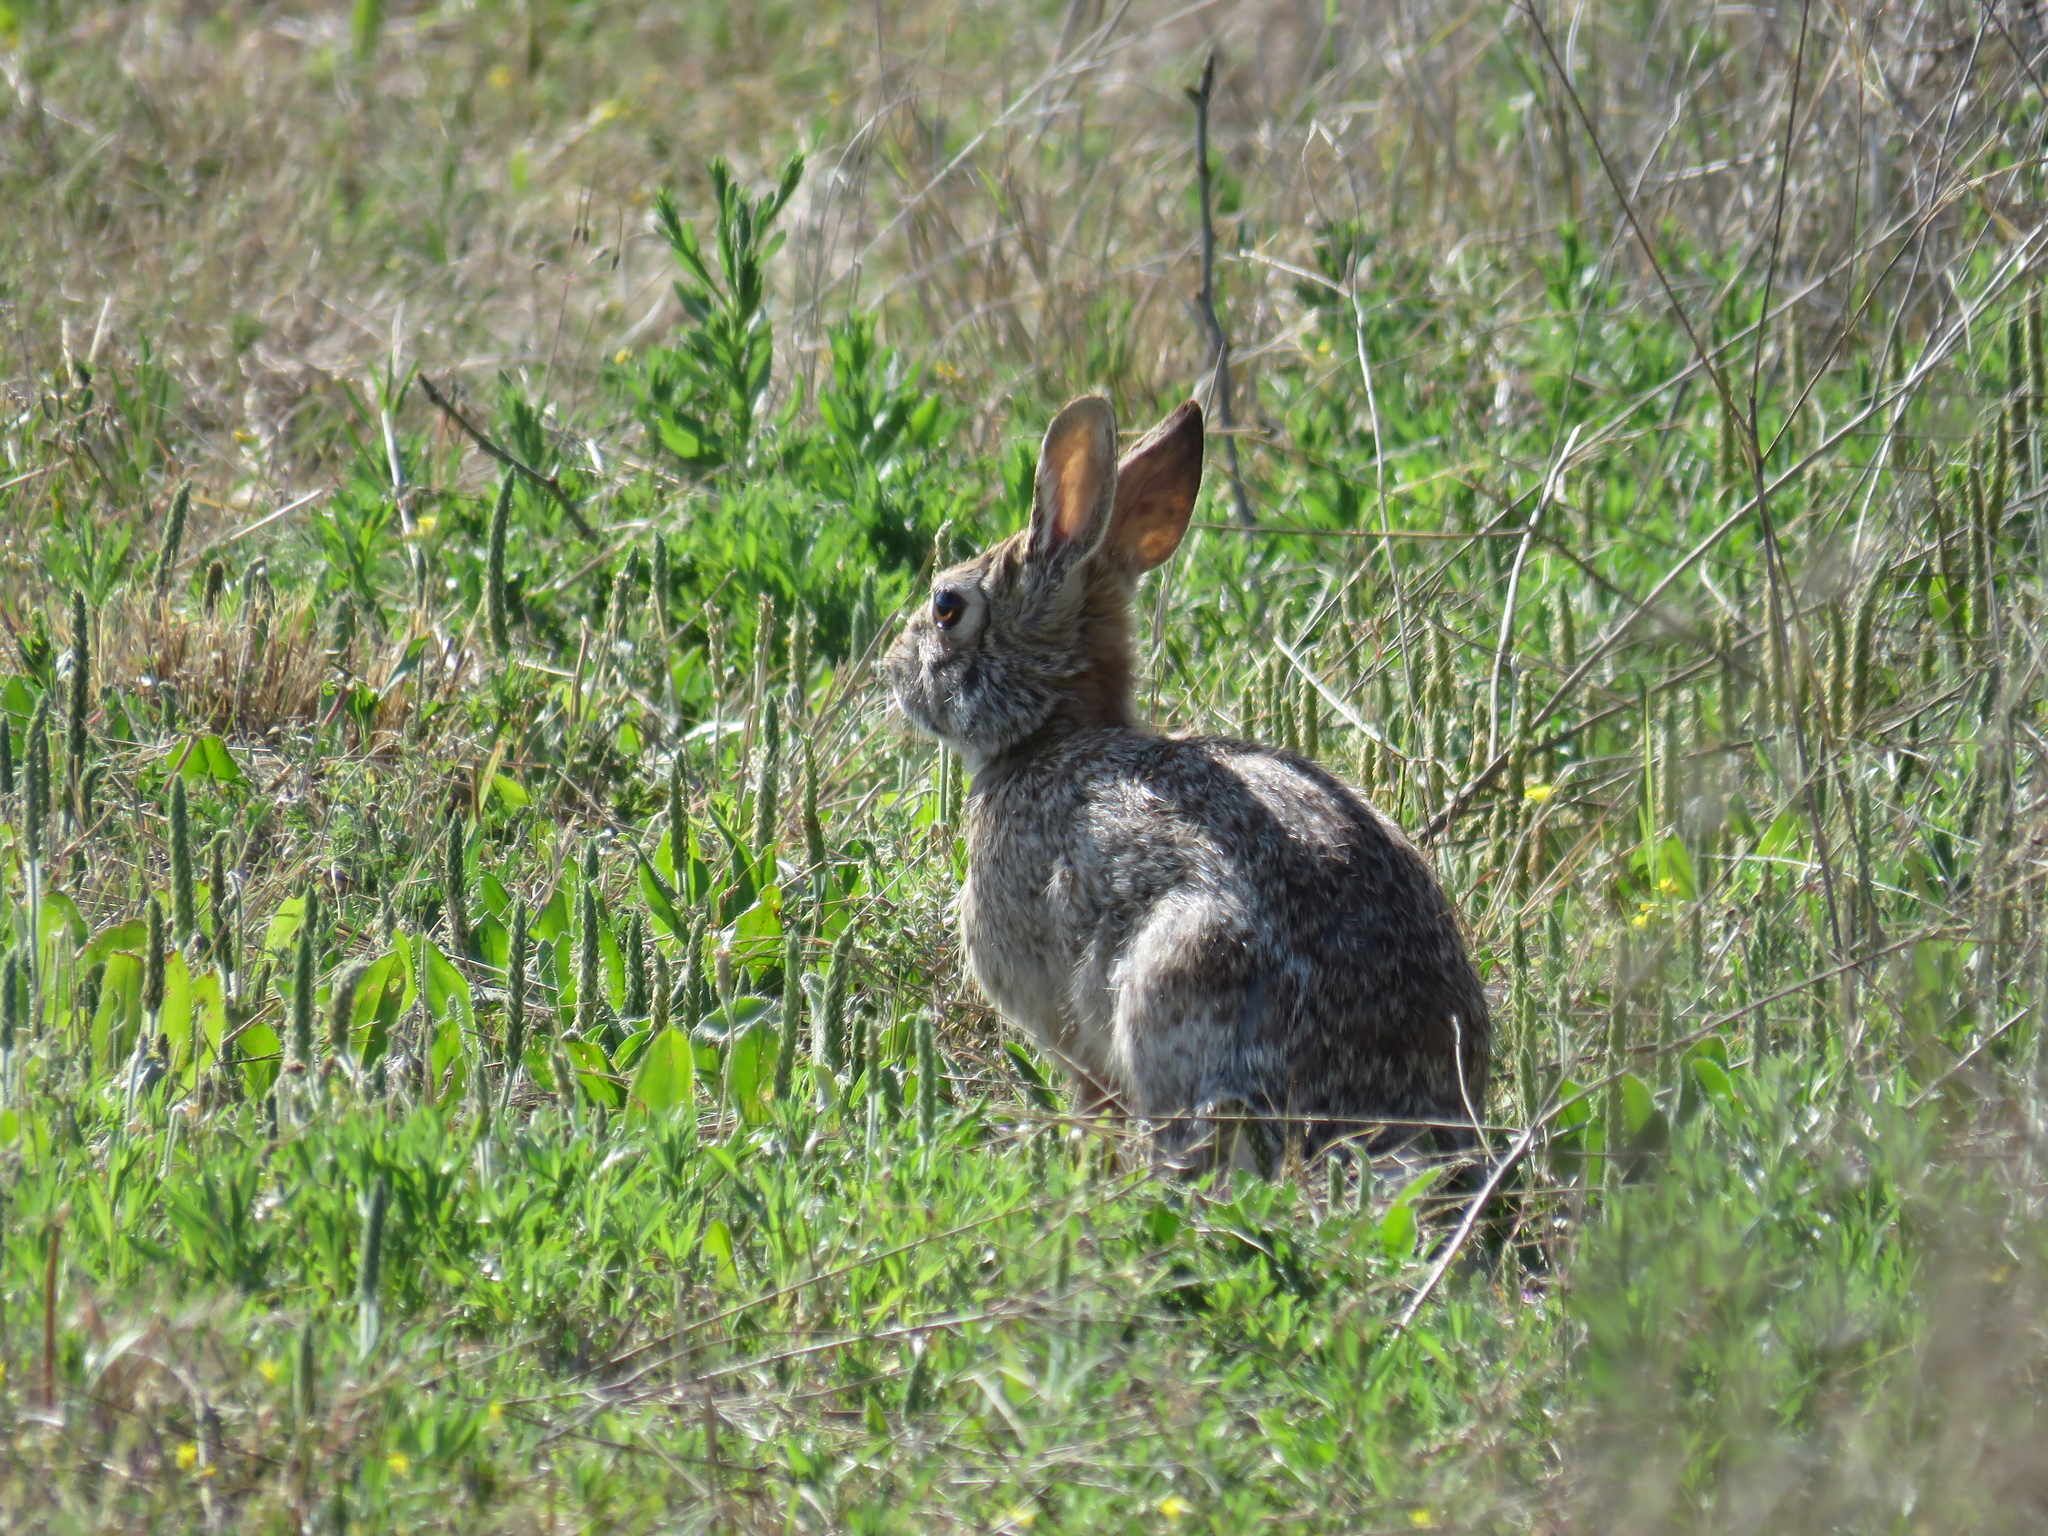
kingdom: Animalia
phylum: Chordata
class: Mammalia
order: Lagomorpha
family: Leporidae
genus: Sylvilagus
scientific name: Sylvilagus floridanus
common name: Eastern cottontail
